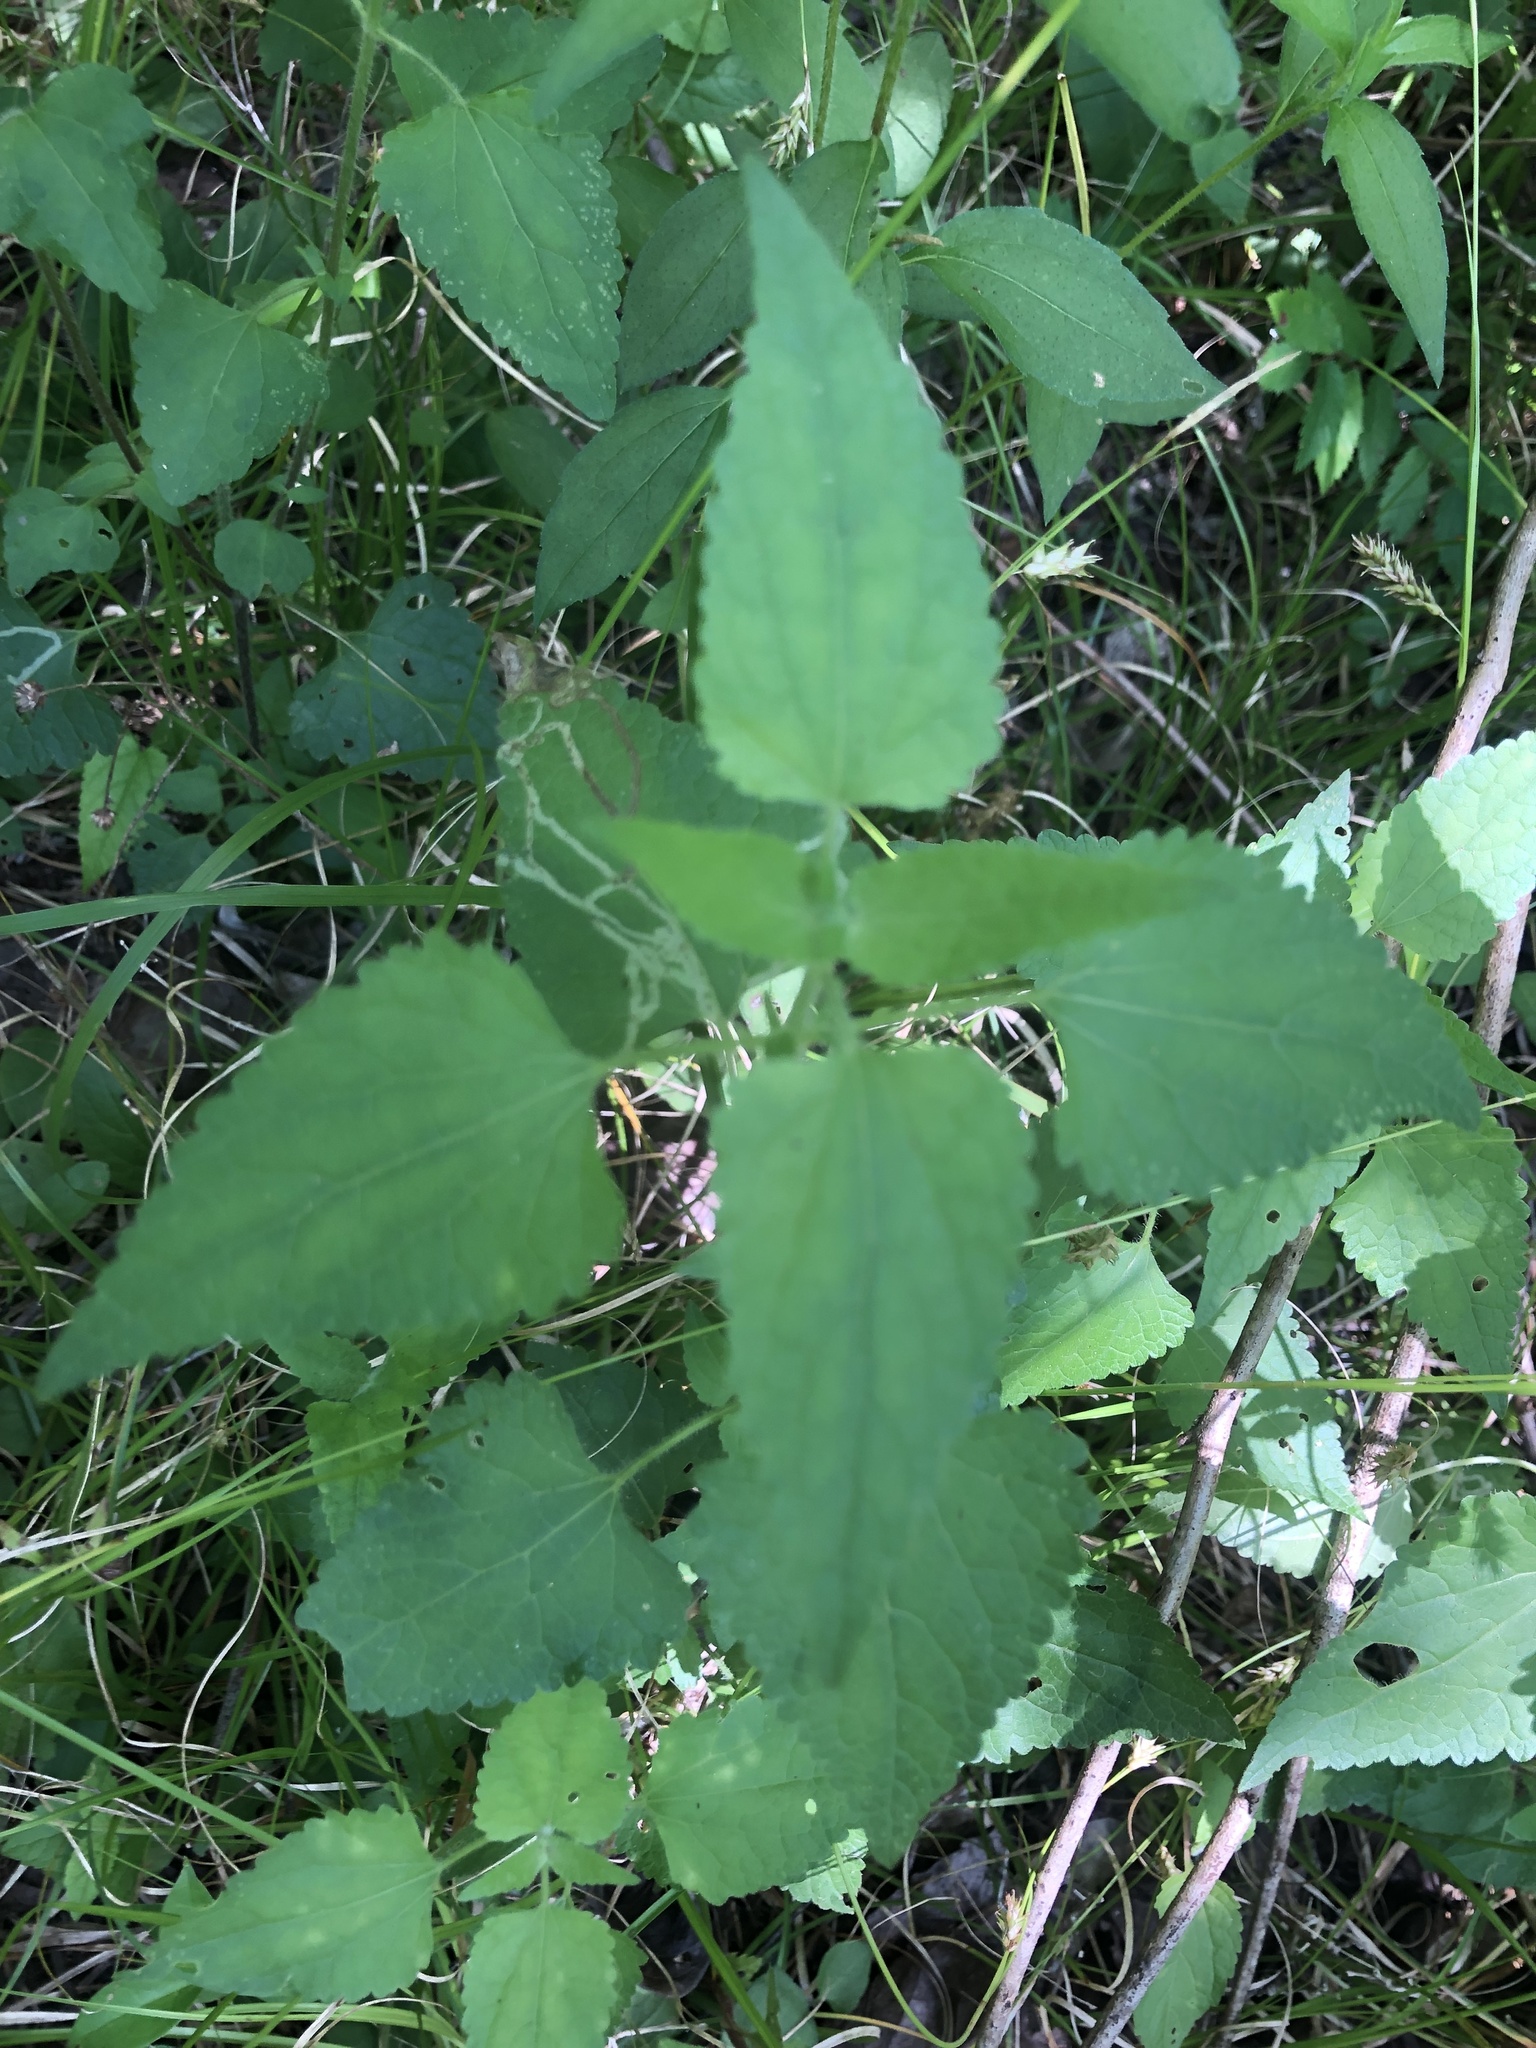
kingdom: Plantae
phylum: Tracheophyta
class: Magnoliopsida
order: Asterales
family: Asteraceae
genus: Fleischmannia
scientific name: Fleischmannia incarnata
